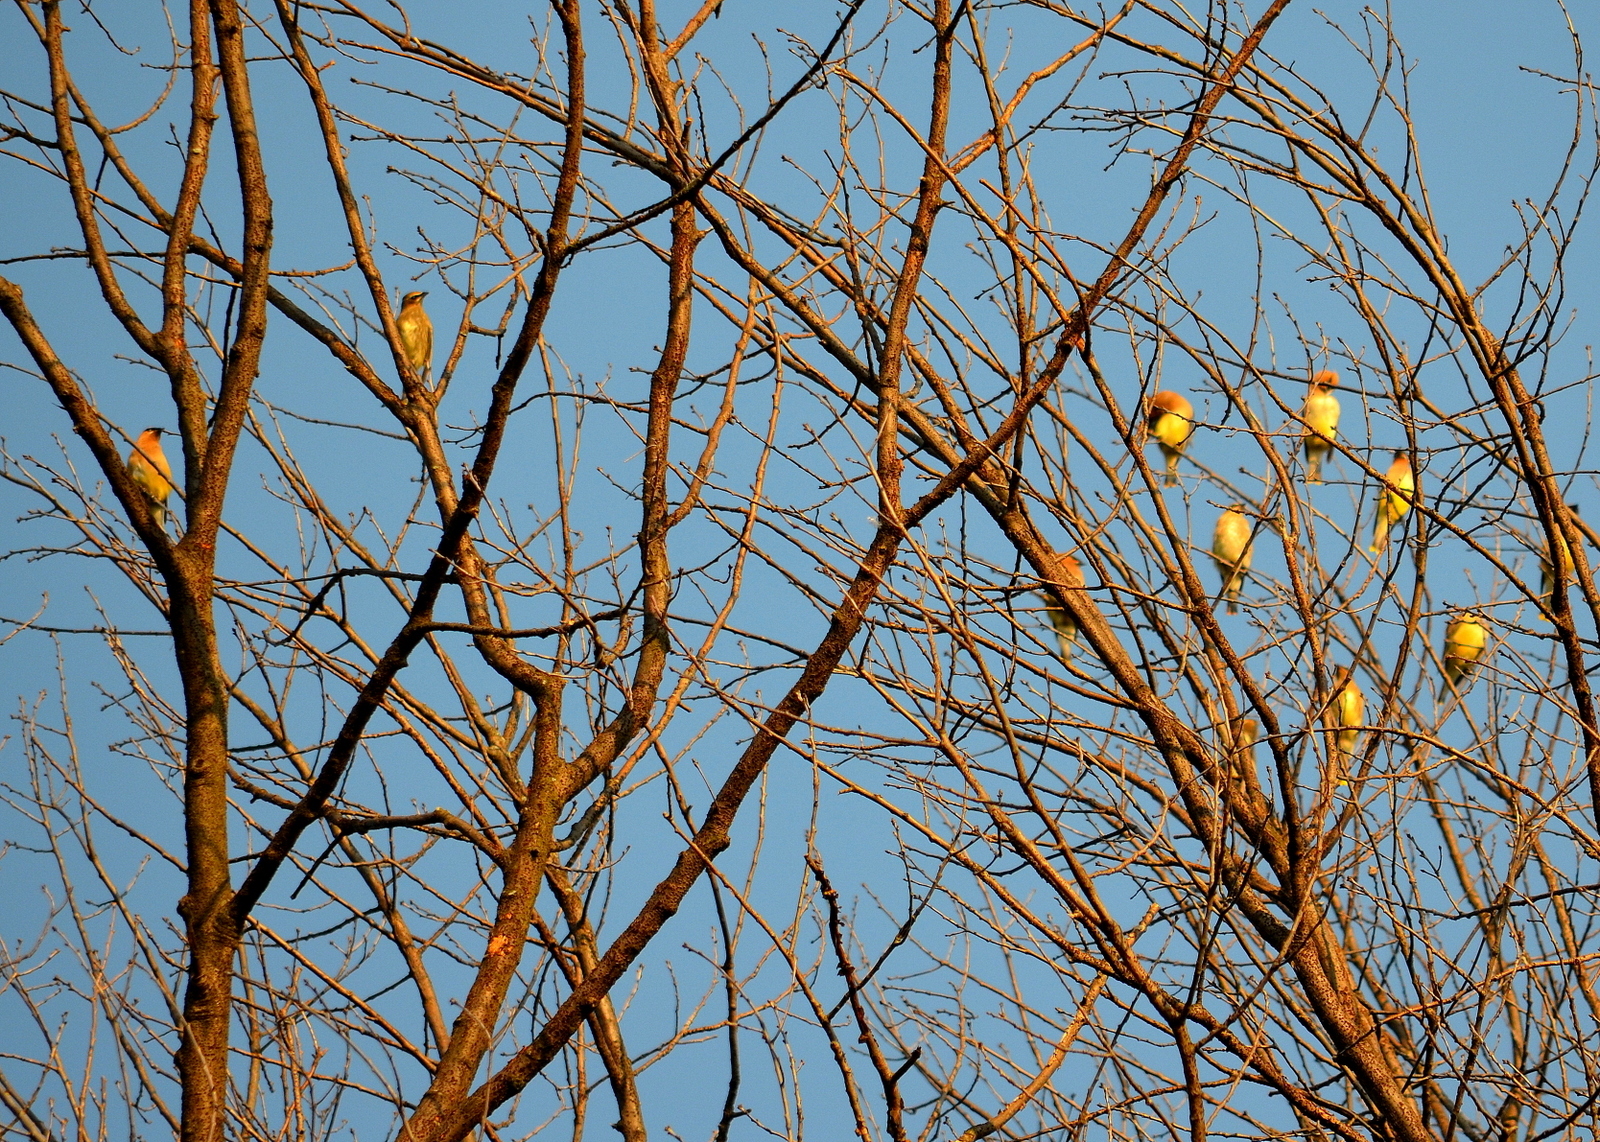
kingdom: Animalia
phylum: Chordata
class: Aves
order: Passeriformes
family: Bombycillidae
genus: Bombycilla
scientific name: Bombycilla cedrorum
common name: Cedar waxwing
